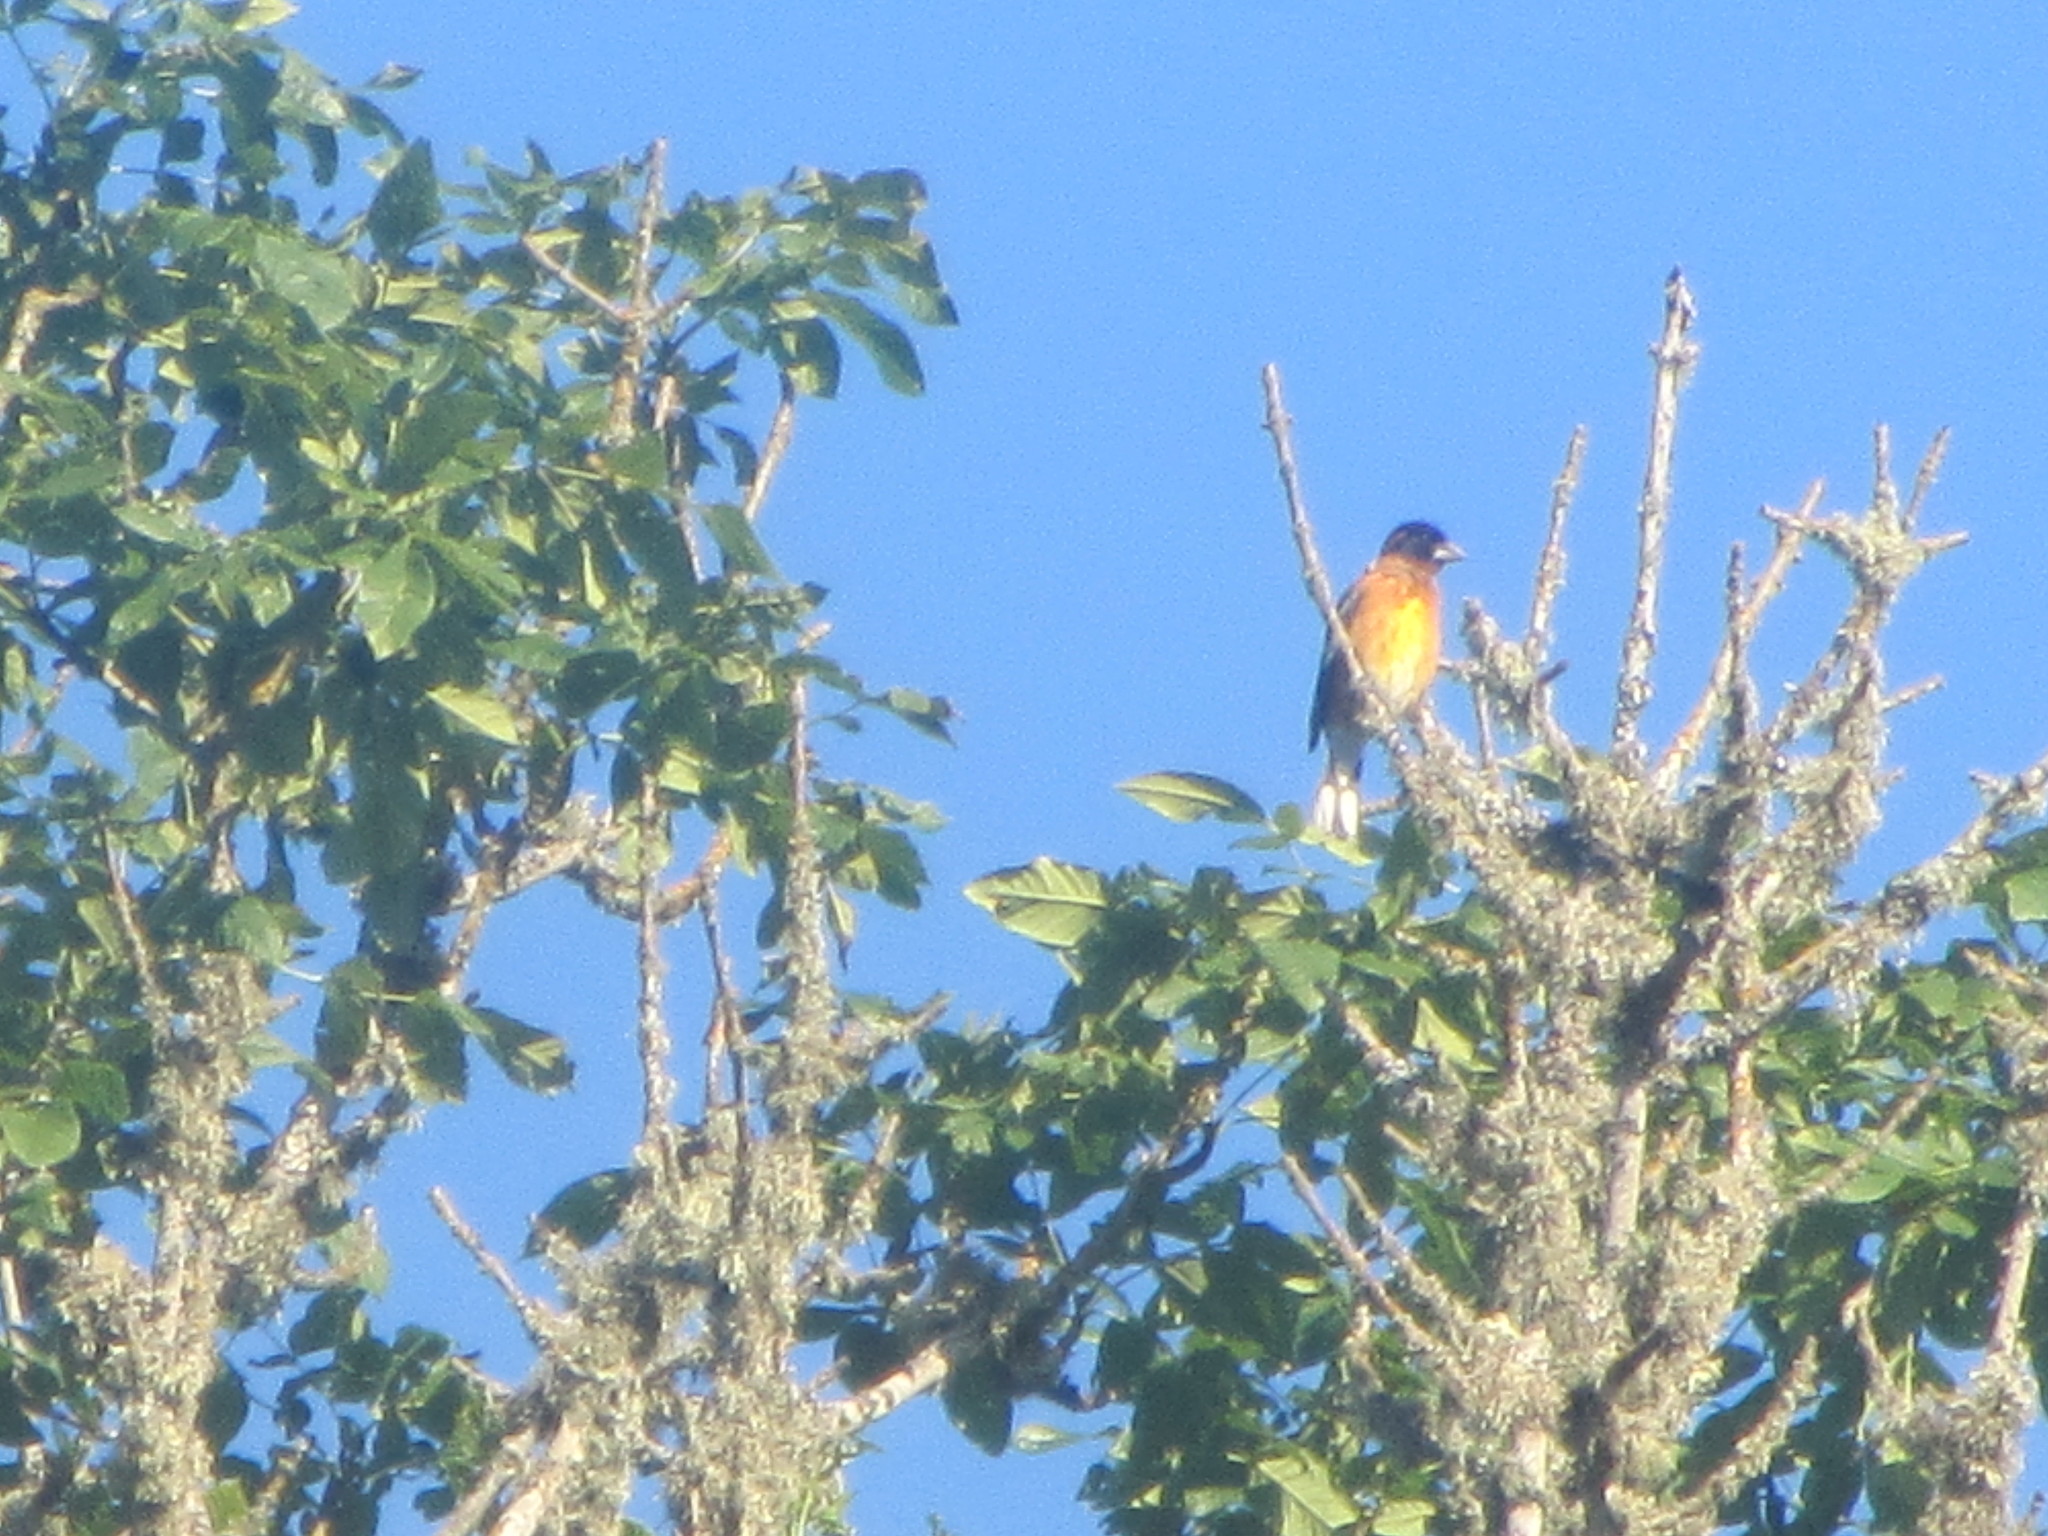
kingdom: Animalia
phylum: Chordata
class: Aves
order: Passeriformes
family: Cardinalidae
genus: Pheucticus
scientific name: Pheucticus melanocephalus
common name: Black-headed grosbeak
